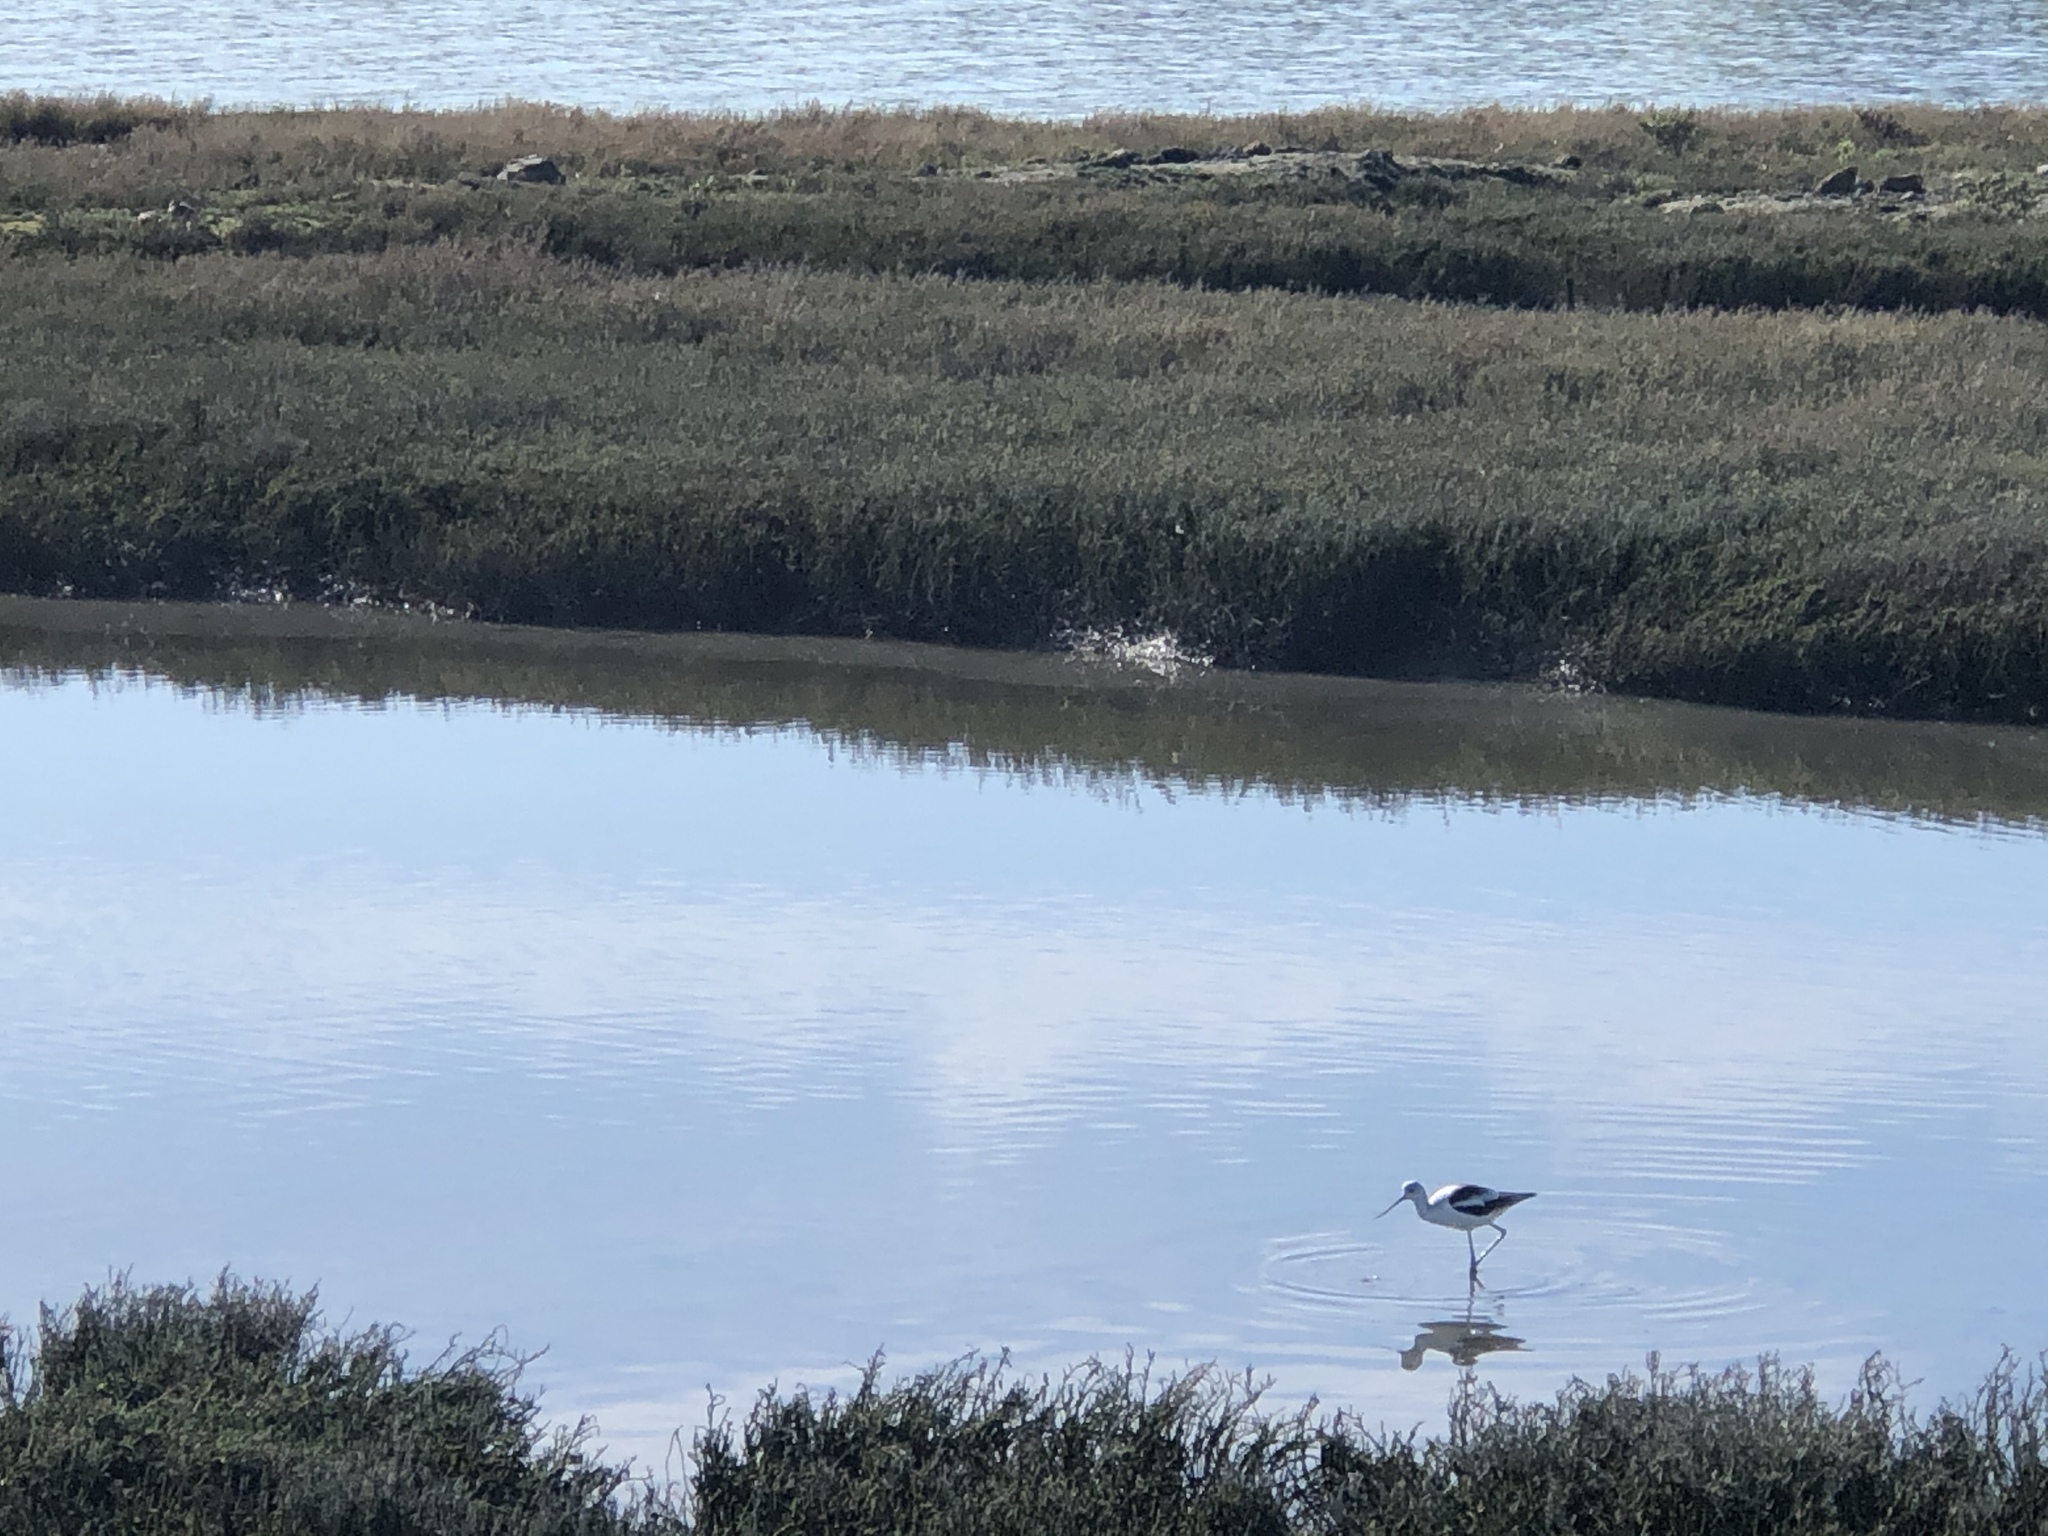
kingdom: Animalia
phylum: Chordata
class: Aves
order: Charadriiformes
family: Recurvirostridae
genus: Recurvirostra
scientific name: Recurvirostra americana
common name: American avocet
